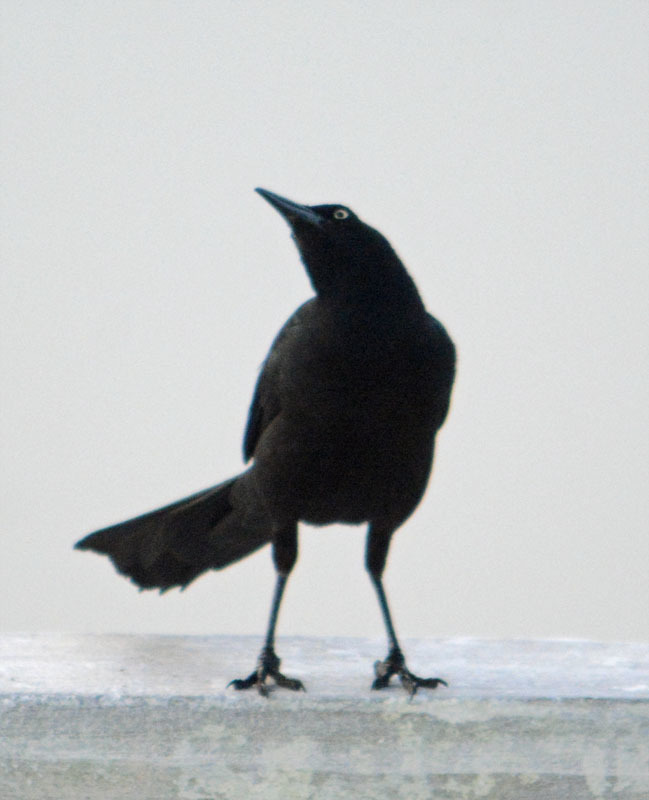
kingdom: Animalia
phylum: Chordata
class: Aves
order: Passeriformes
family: Icteridae
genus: Quiscalus
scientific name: Quiscalus mexicanus
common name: Great-tailed grackle
